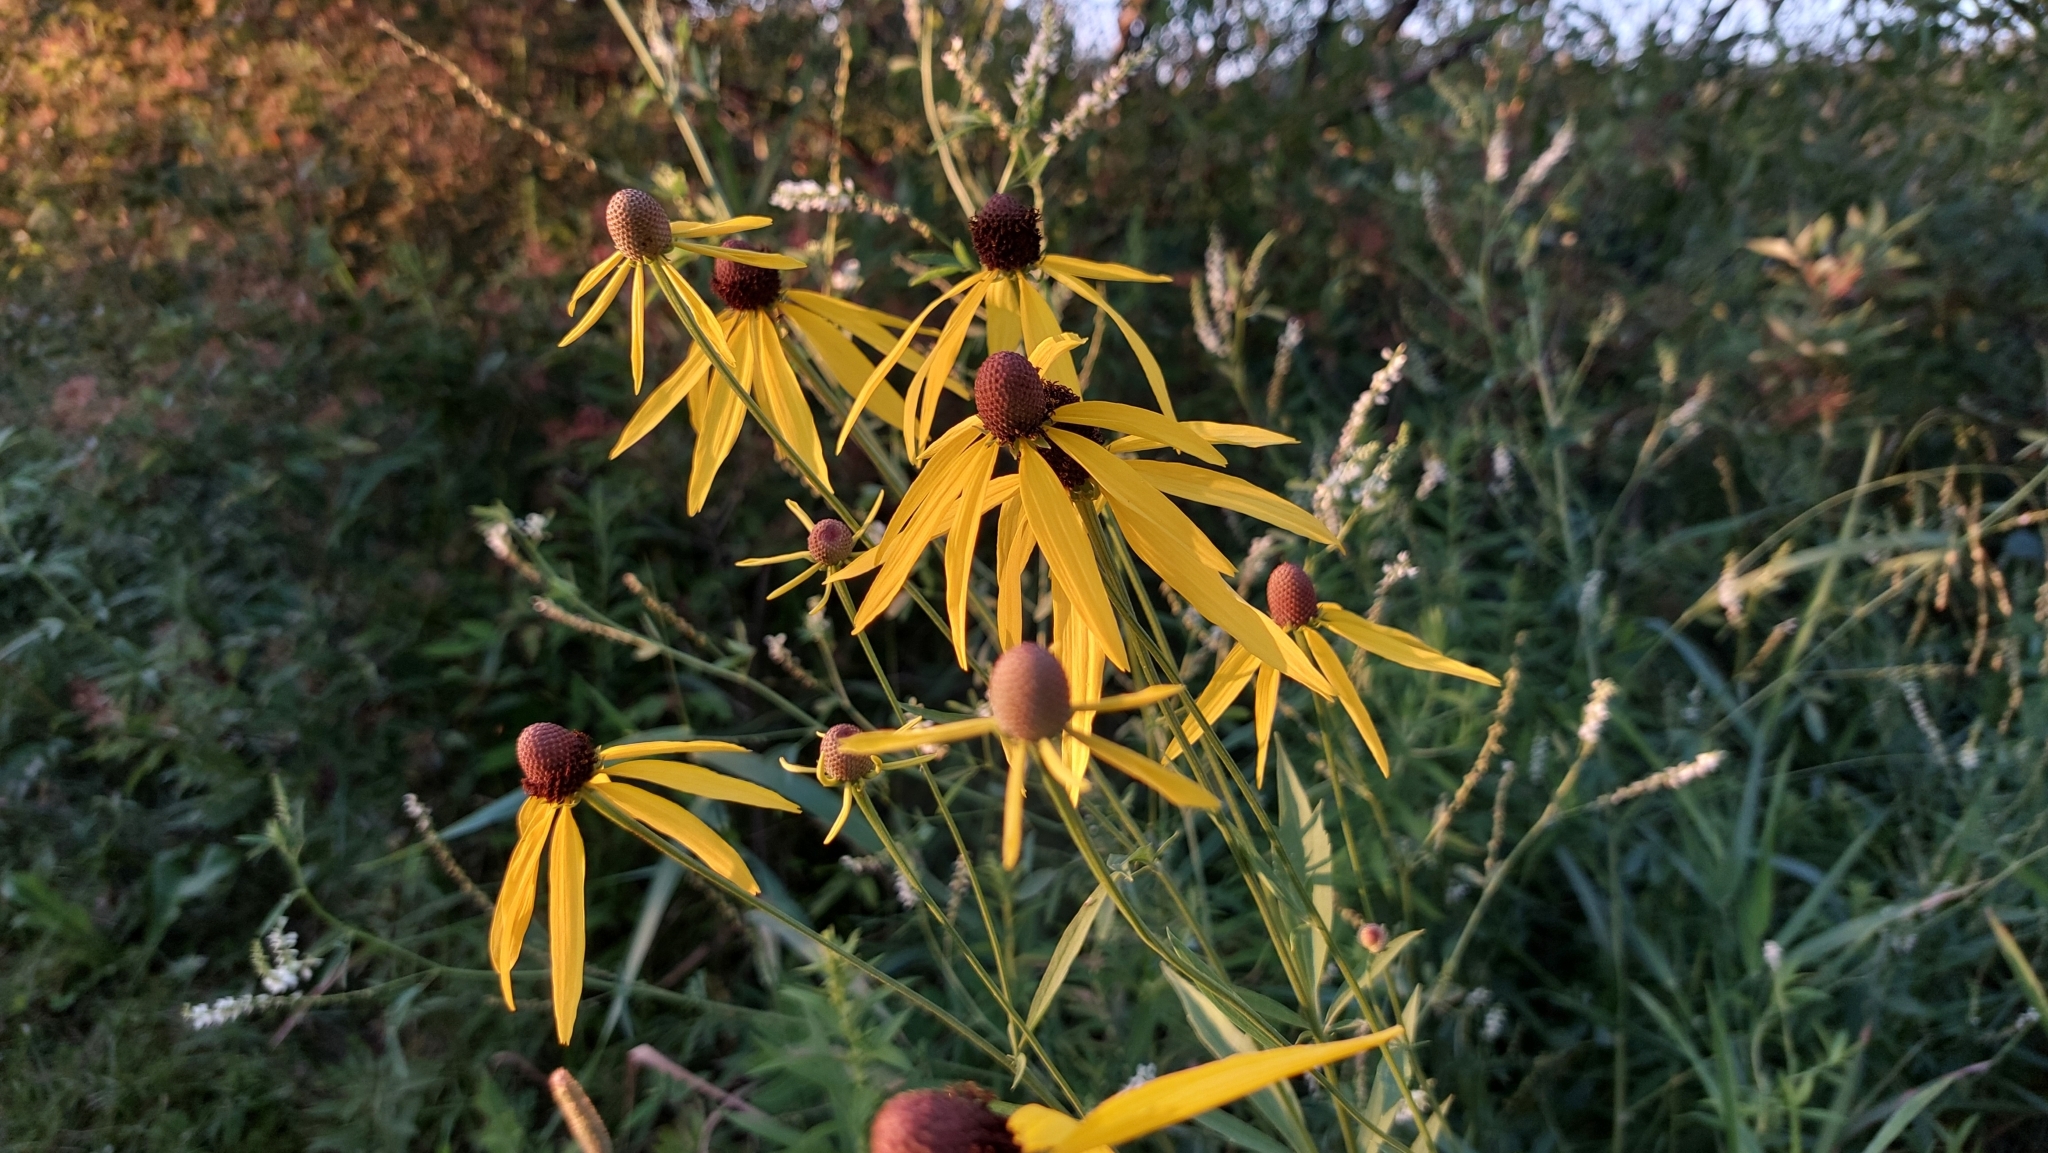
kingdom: Plantae
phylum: Tracheophyta
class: Magnoliopsida
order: Asterales
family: Asteraceae
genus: Ratibida
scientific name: Ratibida pinnata
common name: Drooping prairie-coneflower
